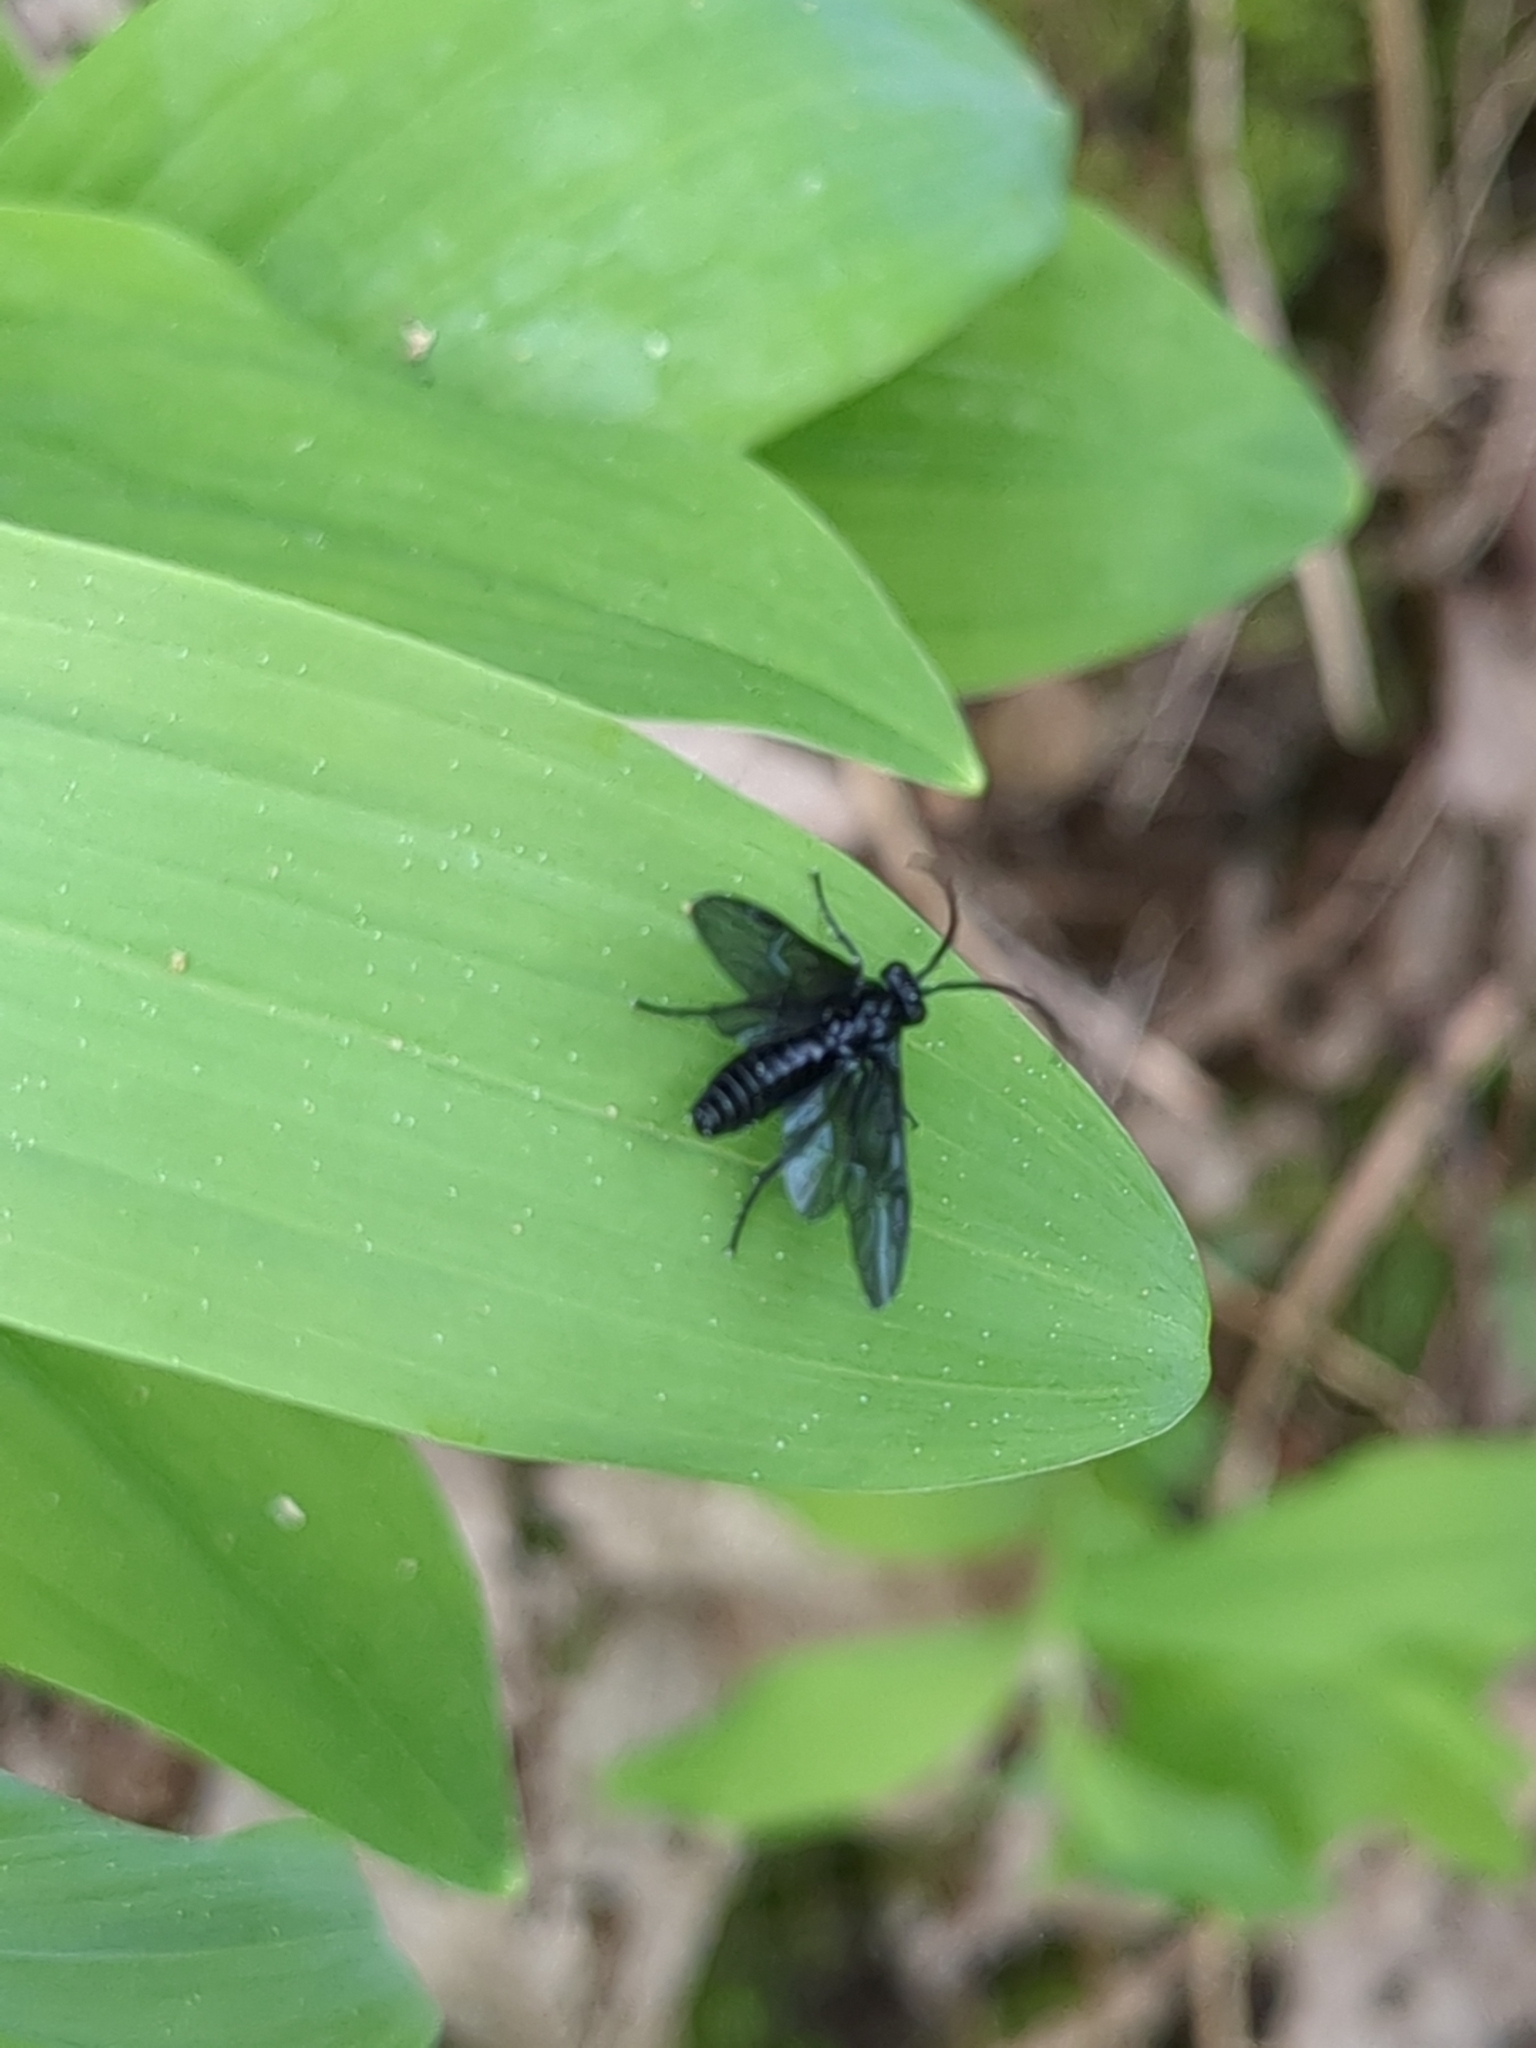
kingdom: Animalia
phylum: Arthropoda
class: Insecta
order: Hymenoptera
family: Tenthredinidae
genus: Phymatocera
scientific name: Phymatocera aterrima
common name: Solomon's-seal sawfly
